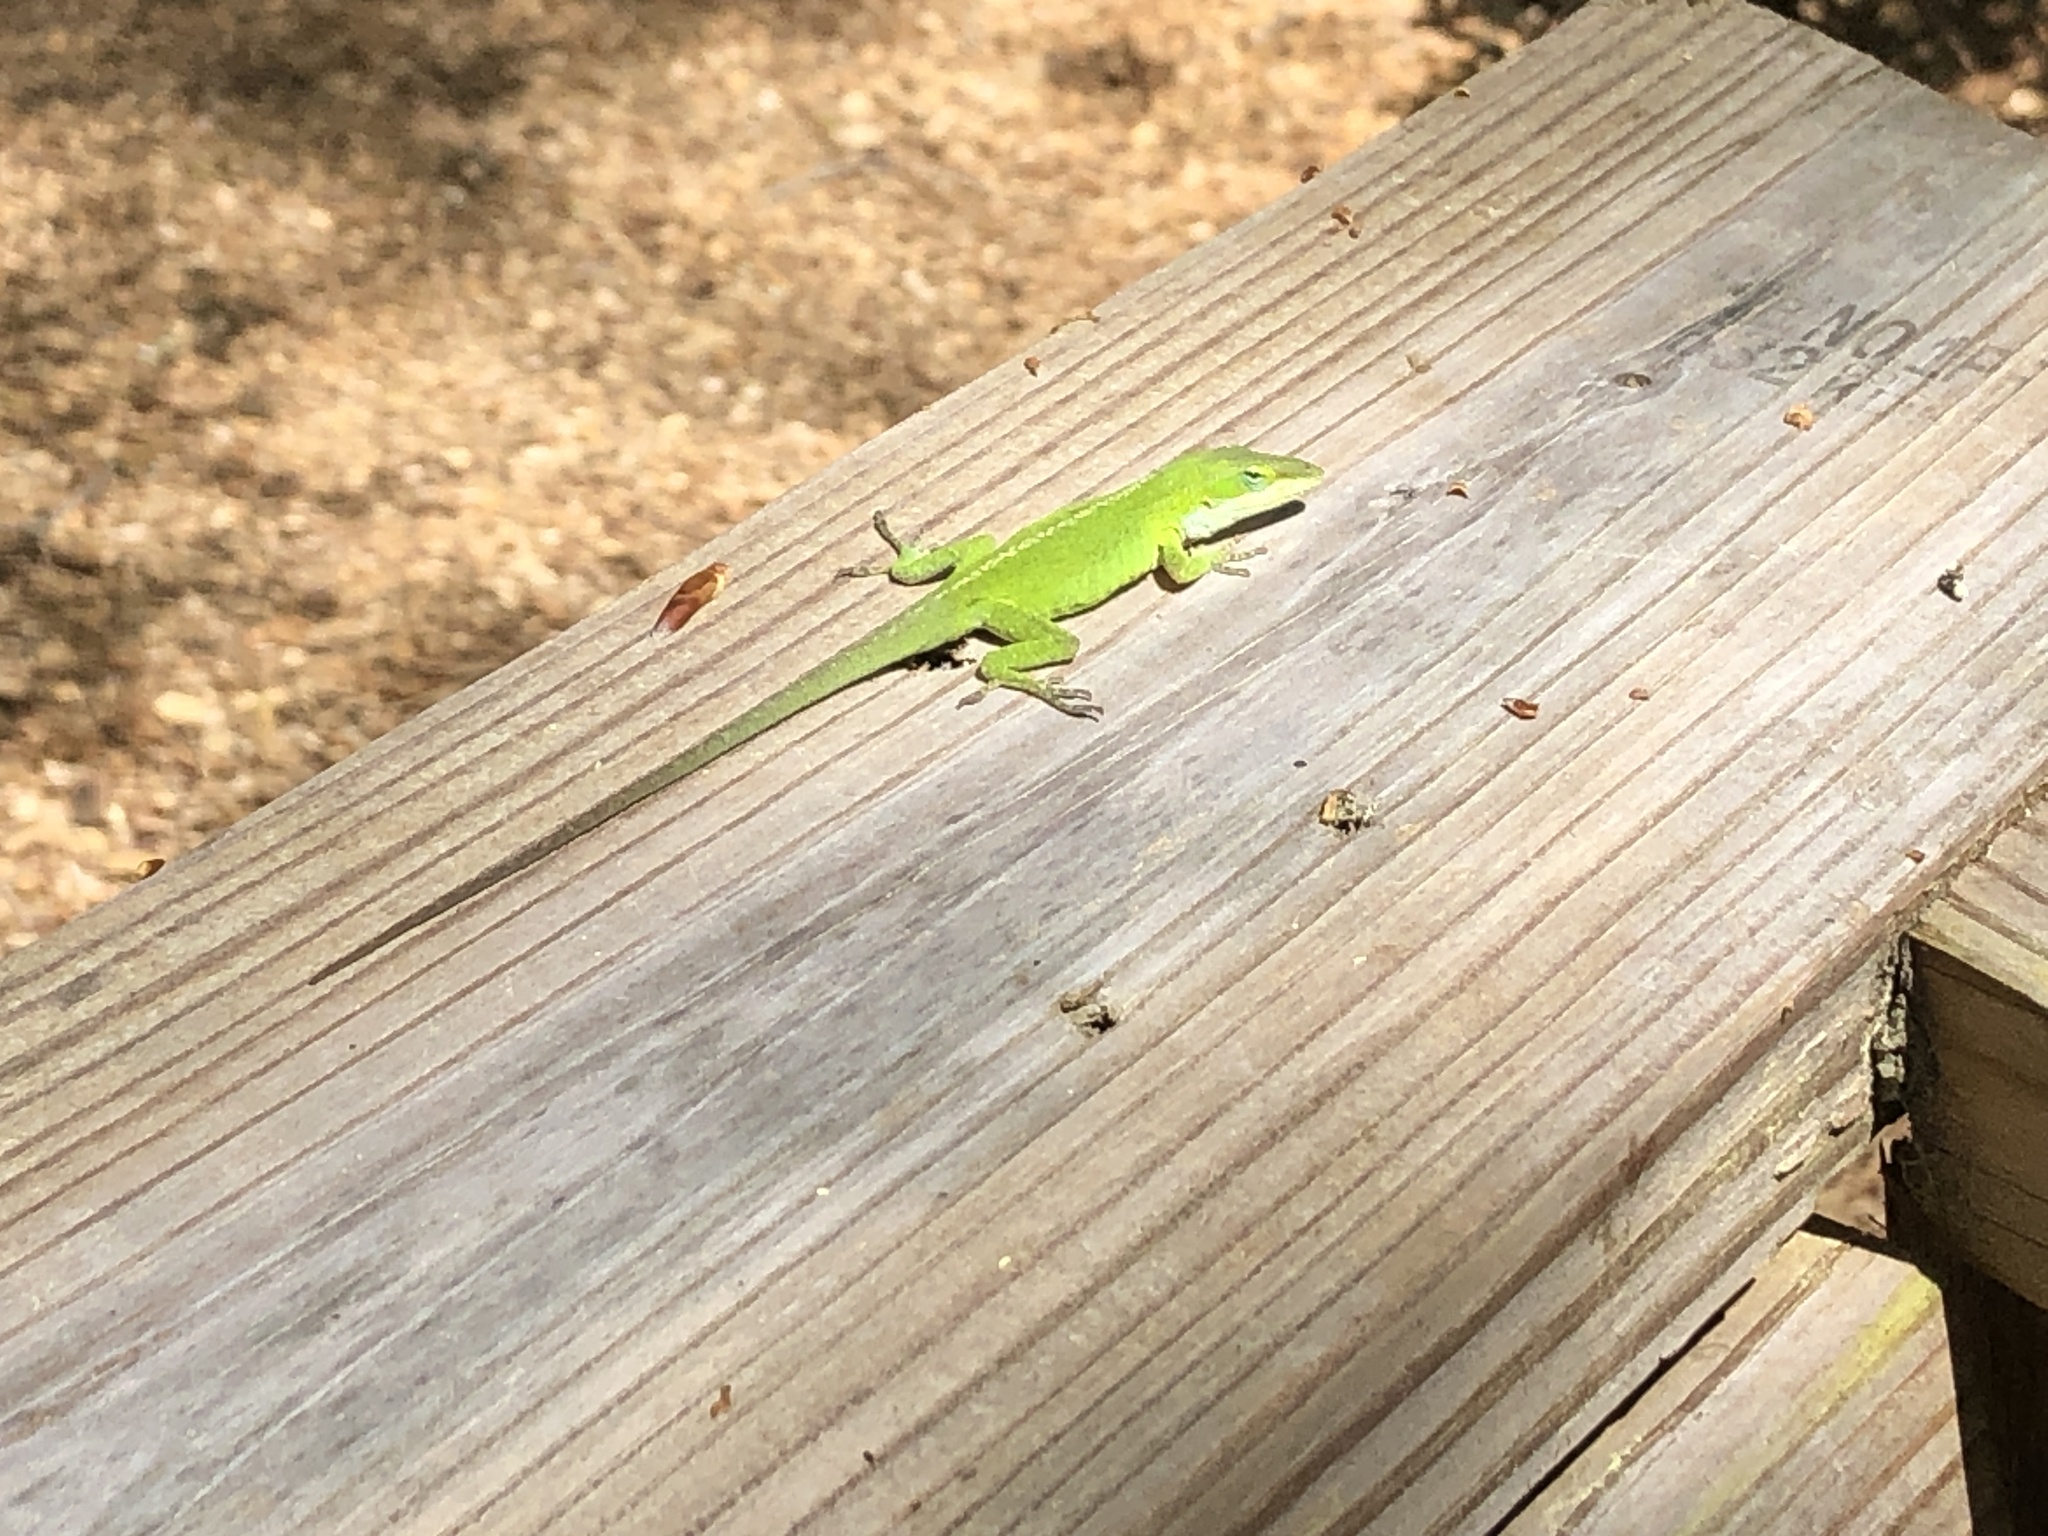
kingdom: Animalia
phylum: Chordata
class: Squamata
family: Dactyloidae
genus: Anolis
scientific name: Anolis carolinensis
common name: Green anole
